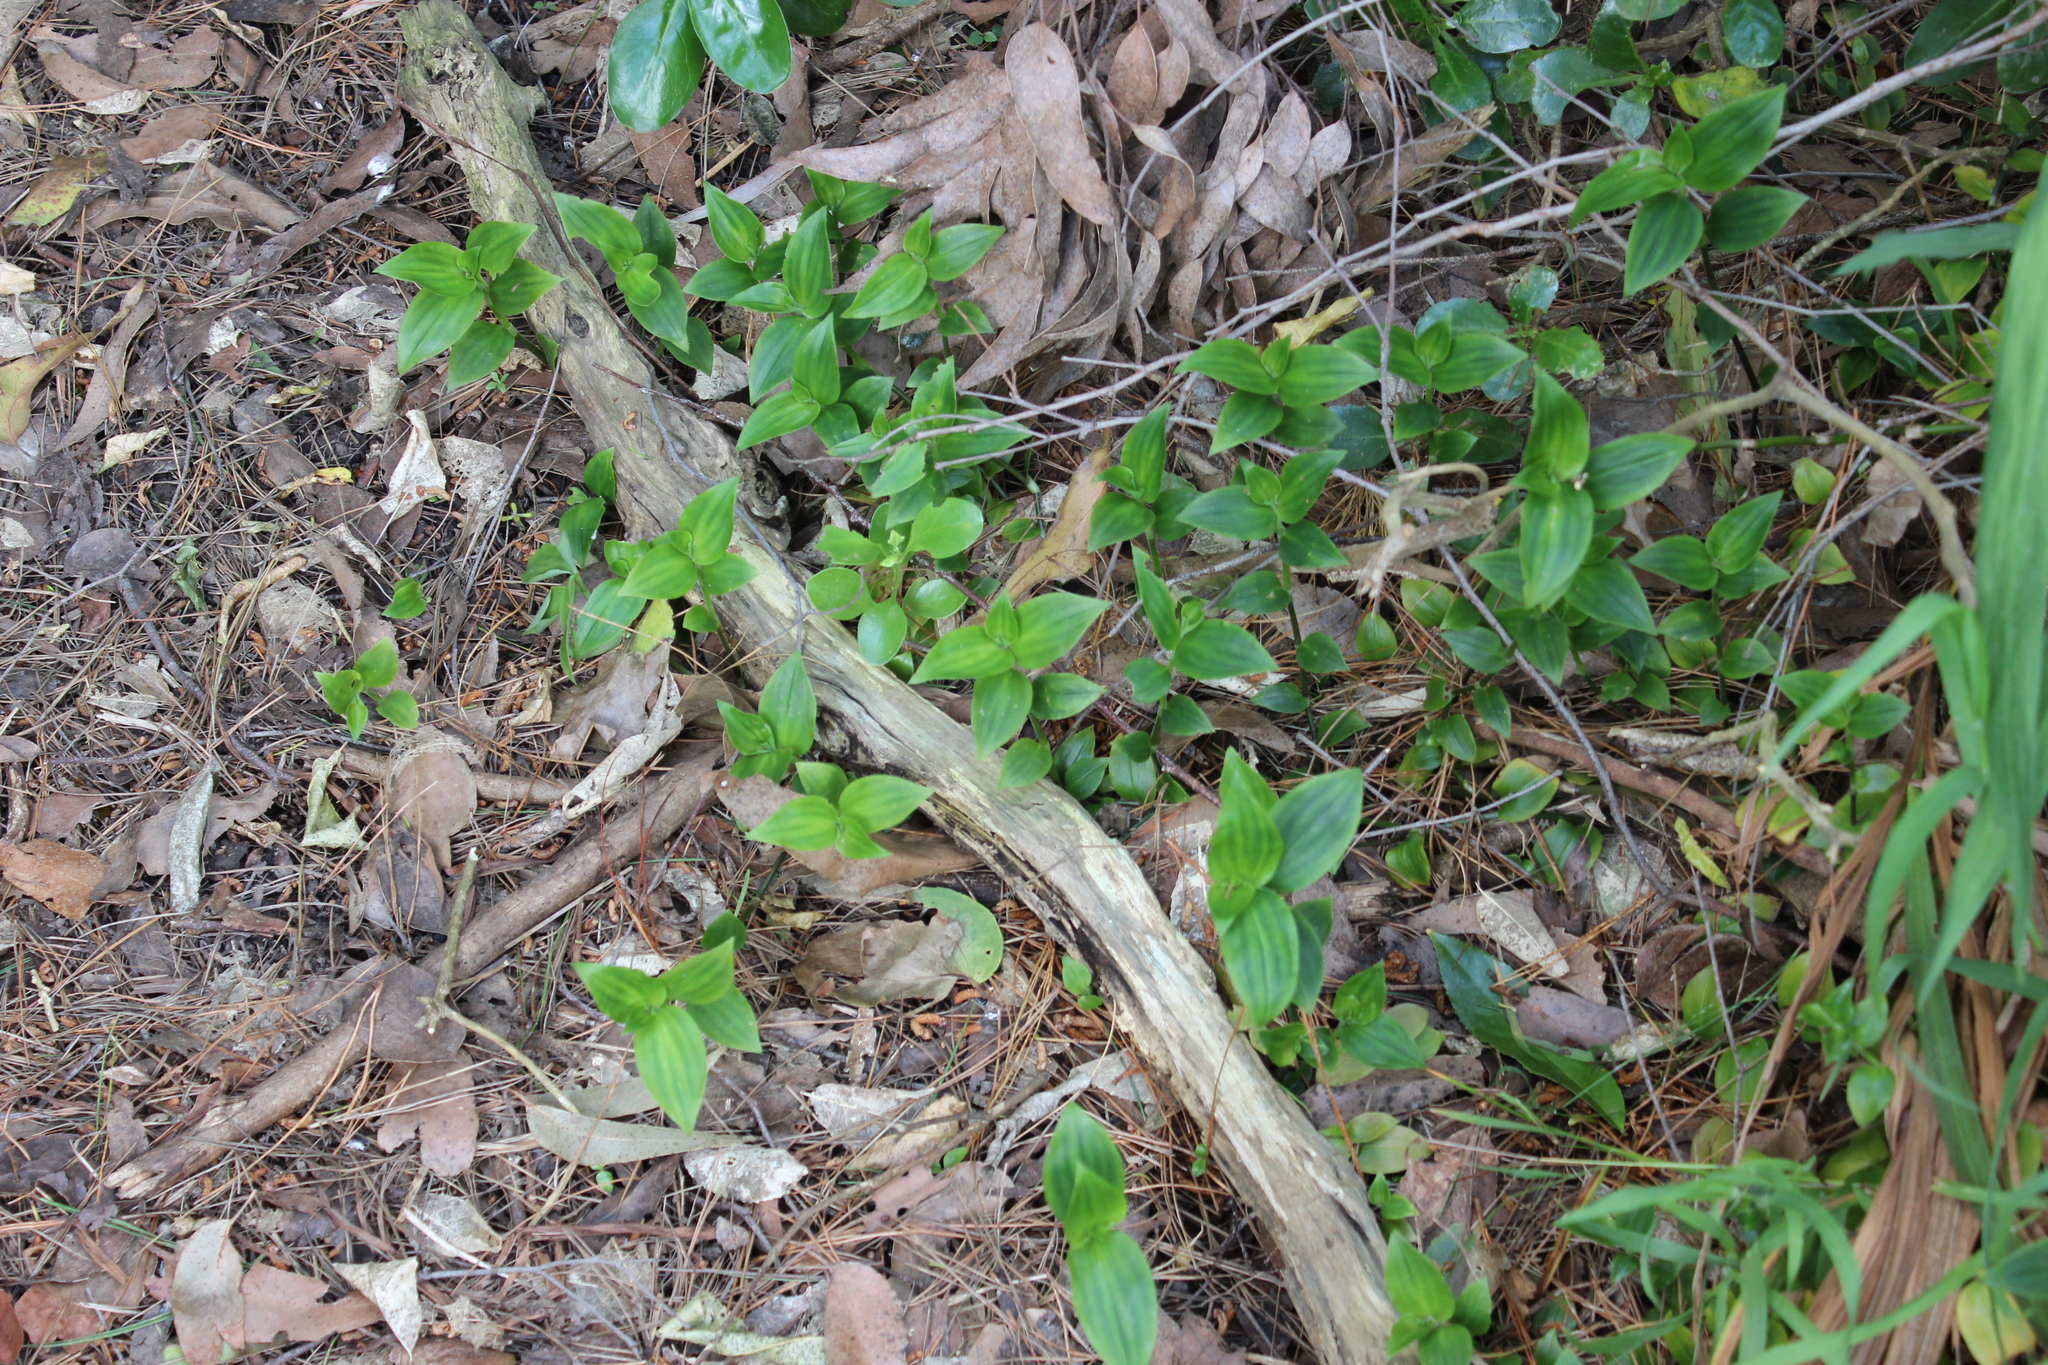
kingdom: Plantae
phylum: Tracheophyta
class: Liliopsida
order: Commelinales
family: Commelinaceae
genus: Tradescantia
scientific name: Tradescantia fluminensis
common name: Wandering-jew
